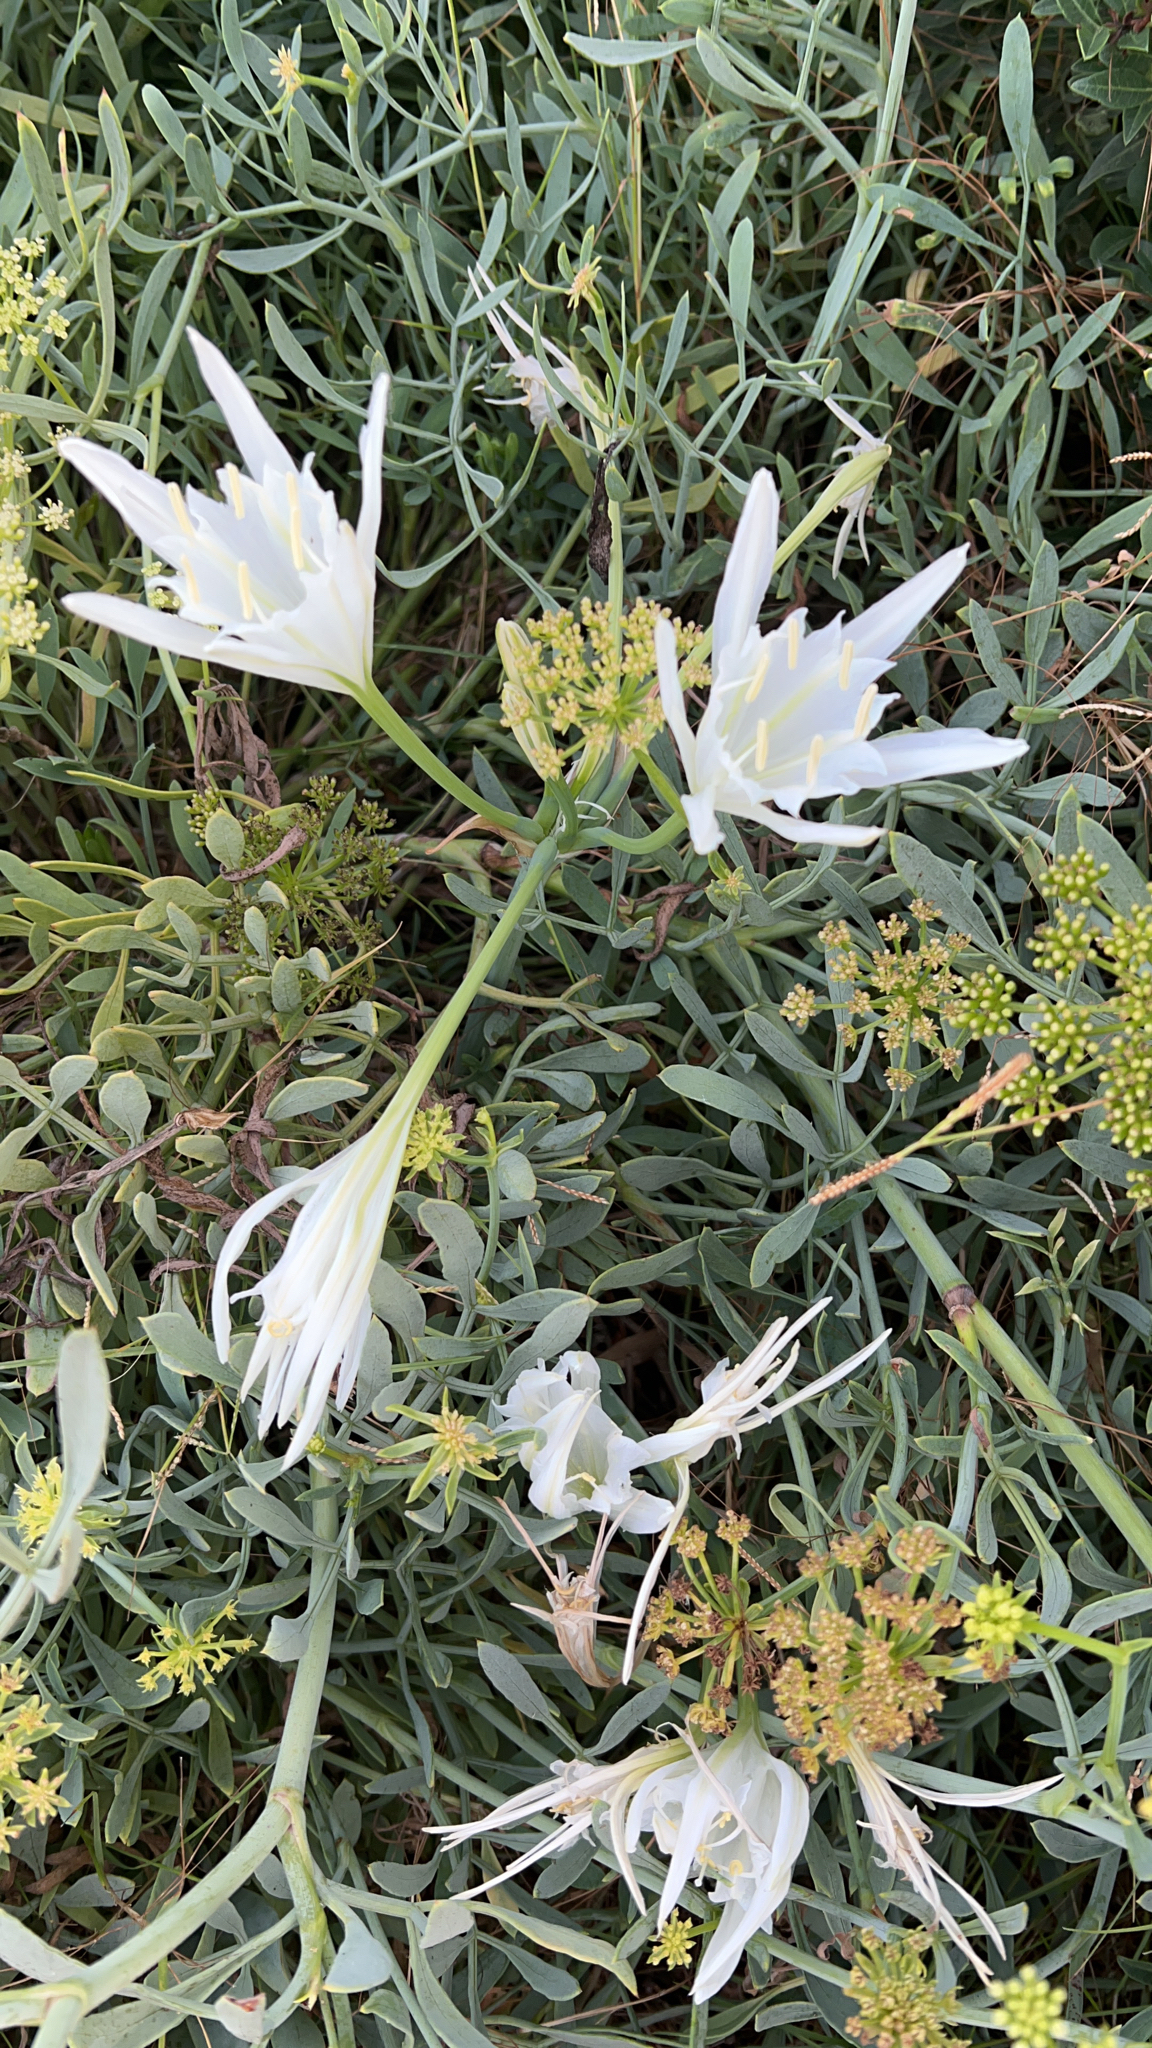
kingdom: Plantae
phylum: Tracheophyta
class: Liliopsida
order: Asparagales
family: Amaryllidaceae
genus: Pancratium
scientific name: Pancratium maritimum
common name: Sea-daffodil
